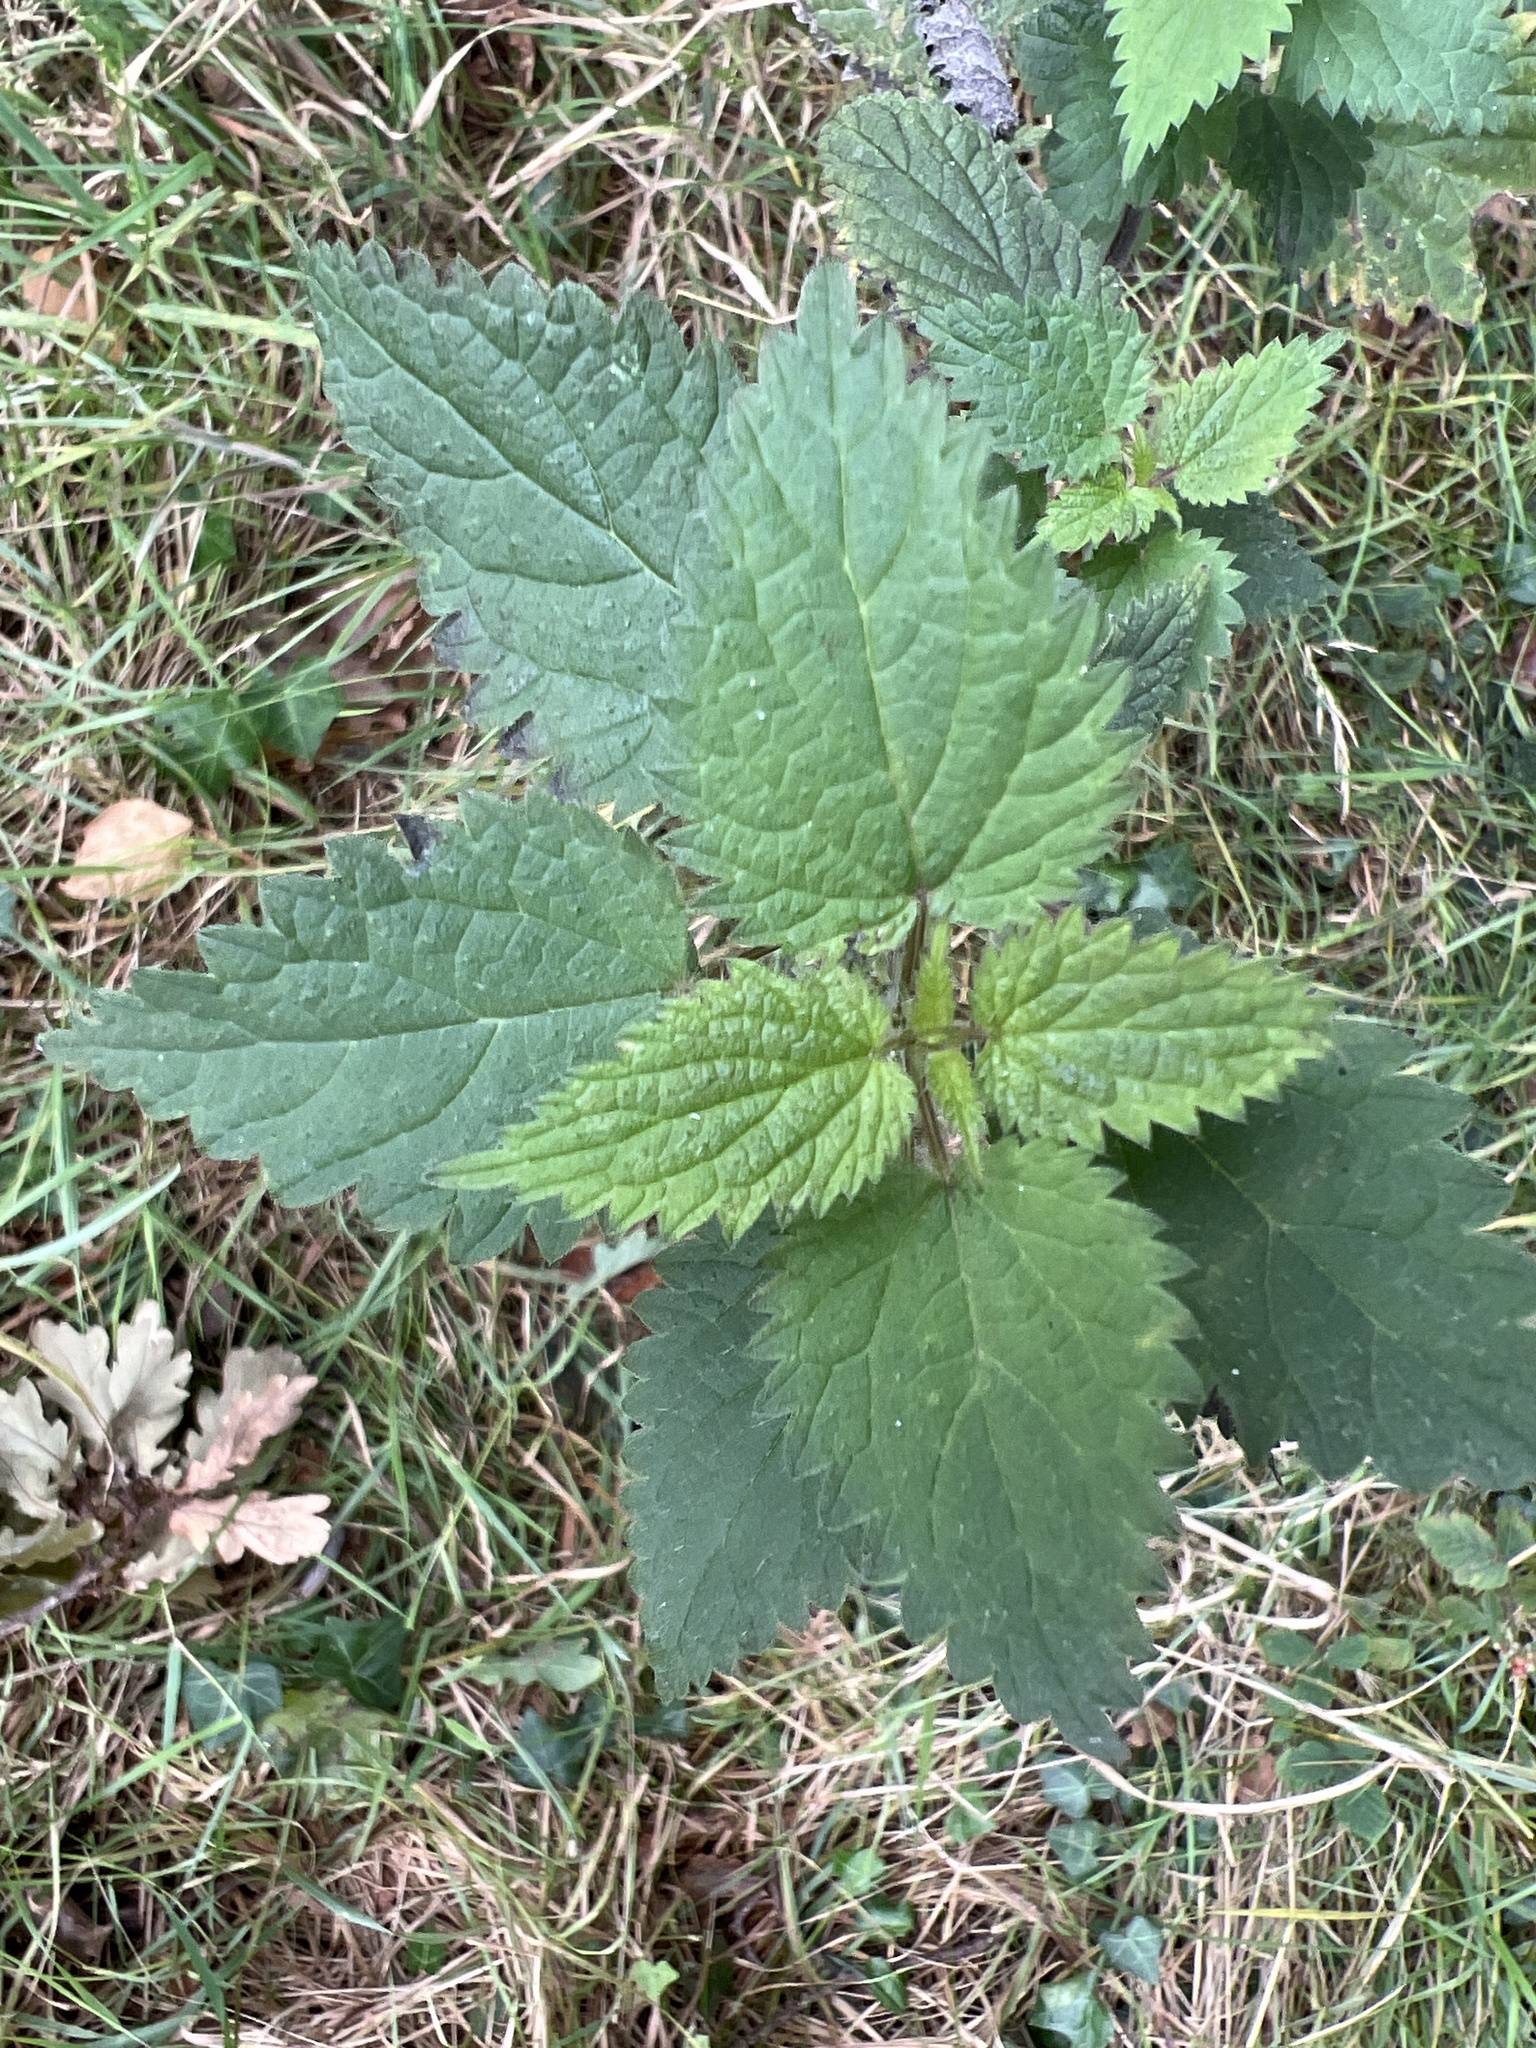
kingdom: Plantae
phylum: Tracheophyta
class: Magnoliopsida
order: Rosales
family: Urticaceae
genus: Urtica
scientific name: Urtica dioica
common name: Common nettle
